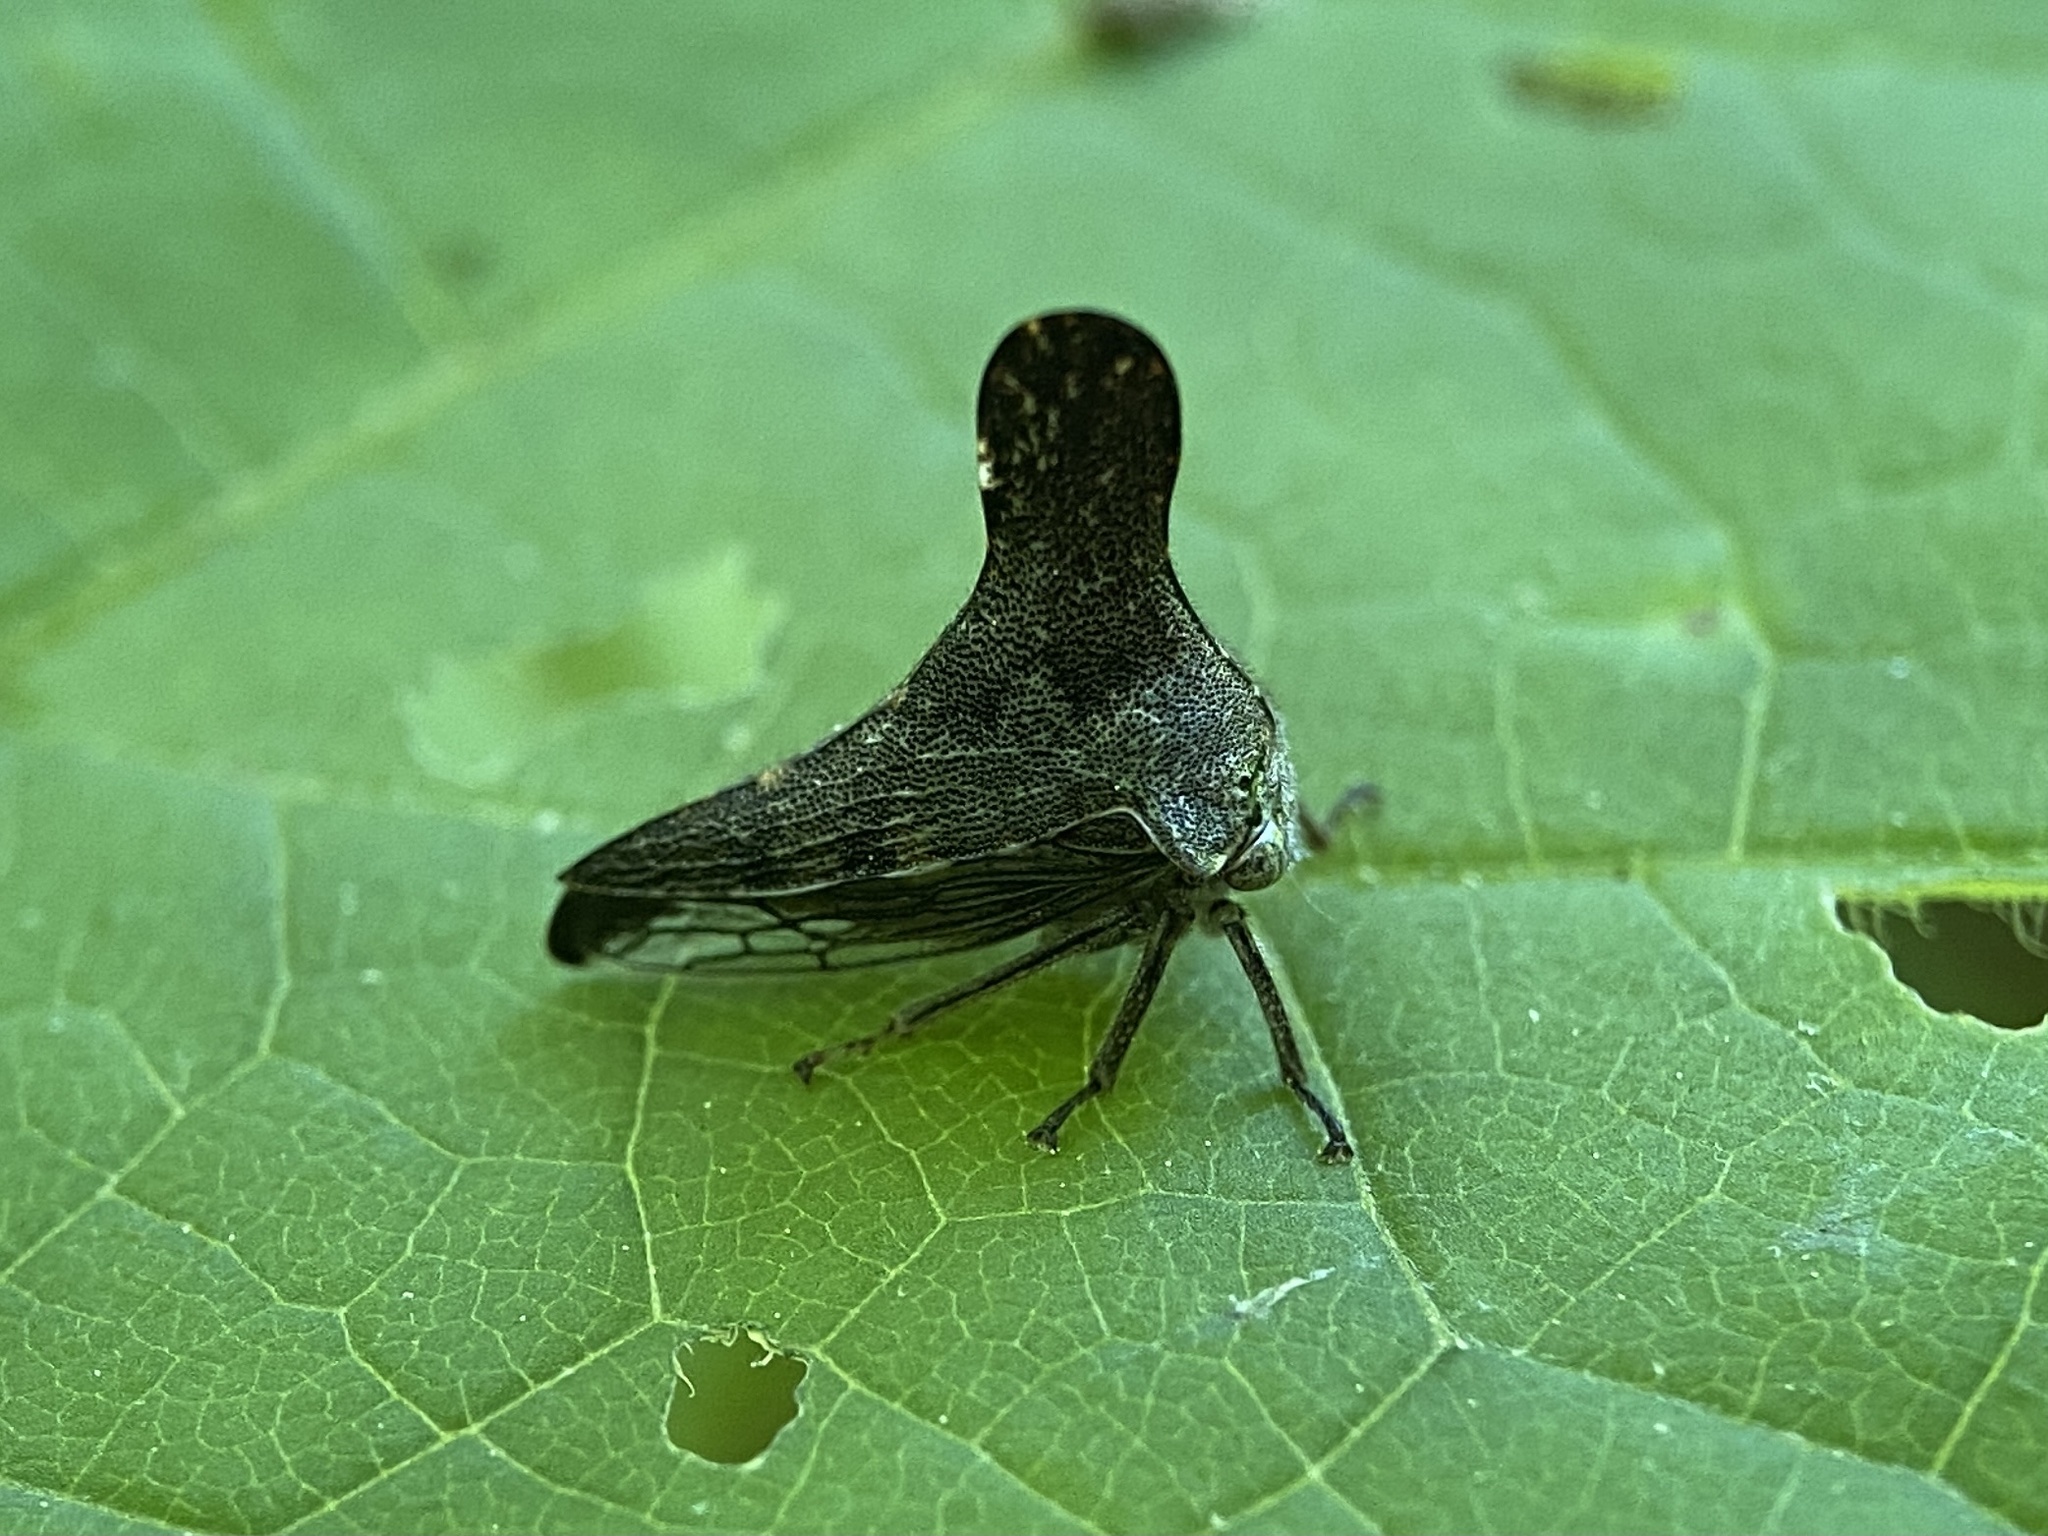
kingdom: Animalia
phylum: Arthropoda
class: Insecta
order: Hemiptera
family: Membracidae
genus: Glossonotus
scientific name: Glossonotus acuminata
